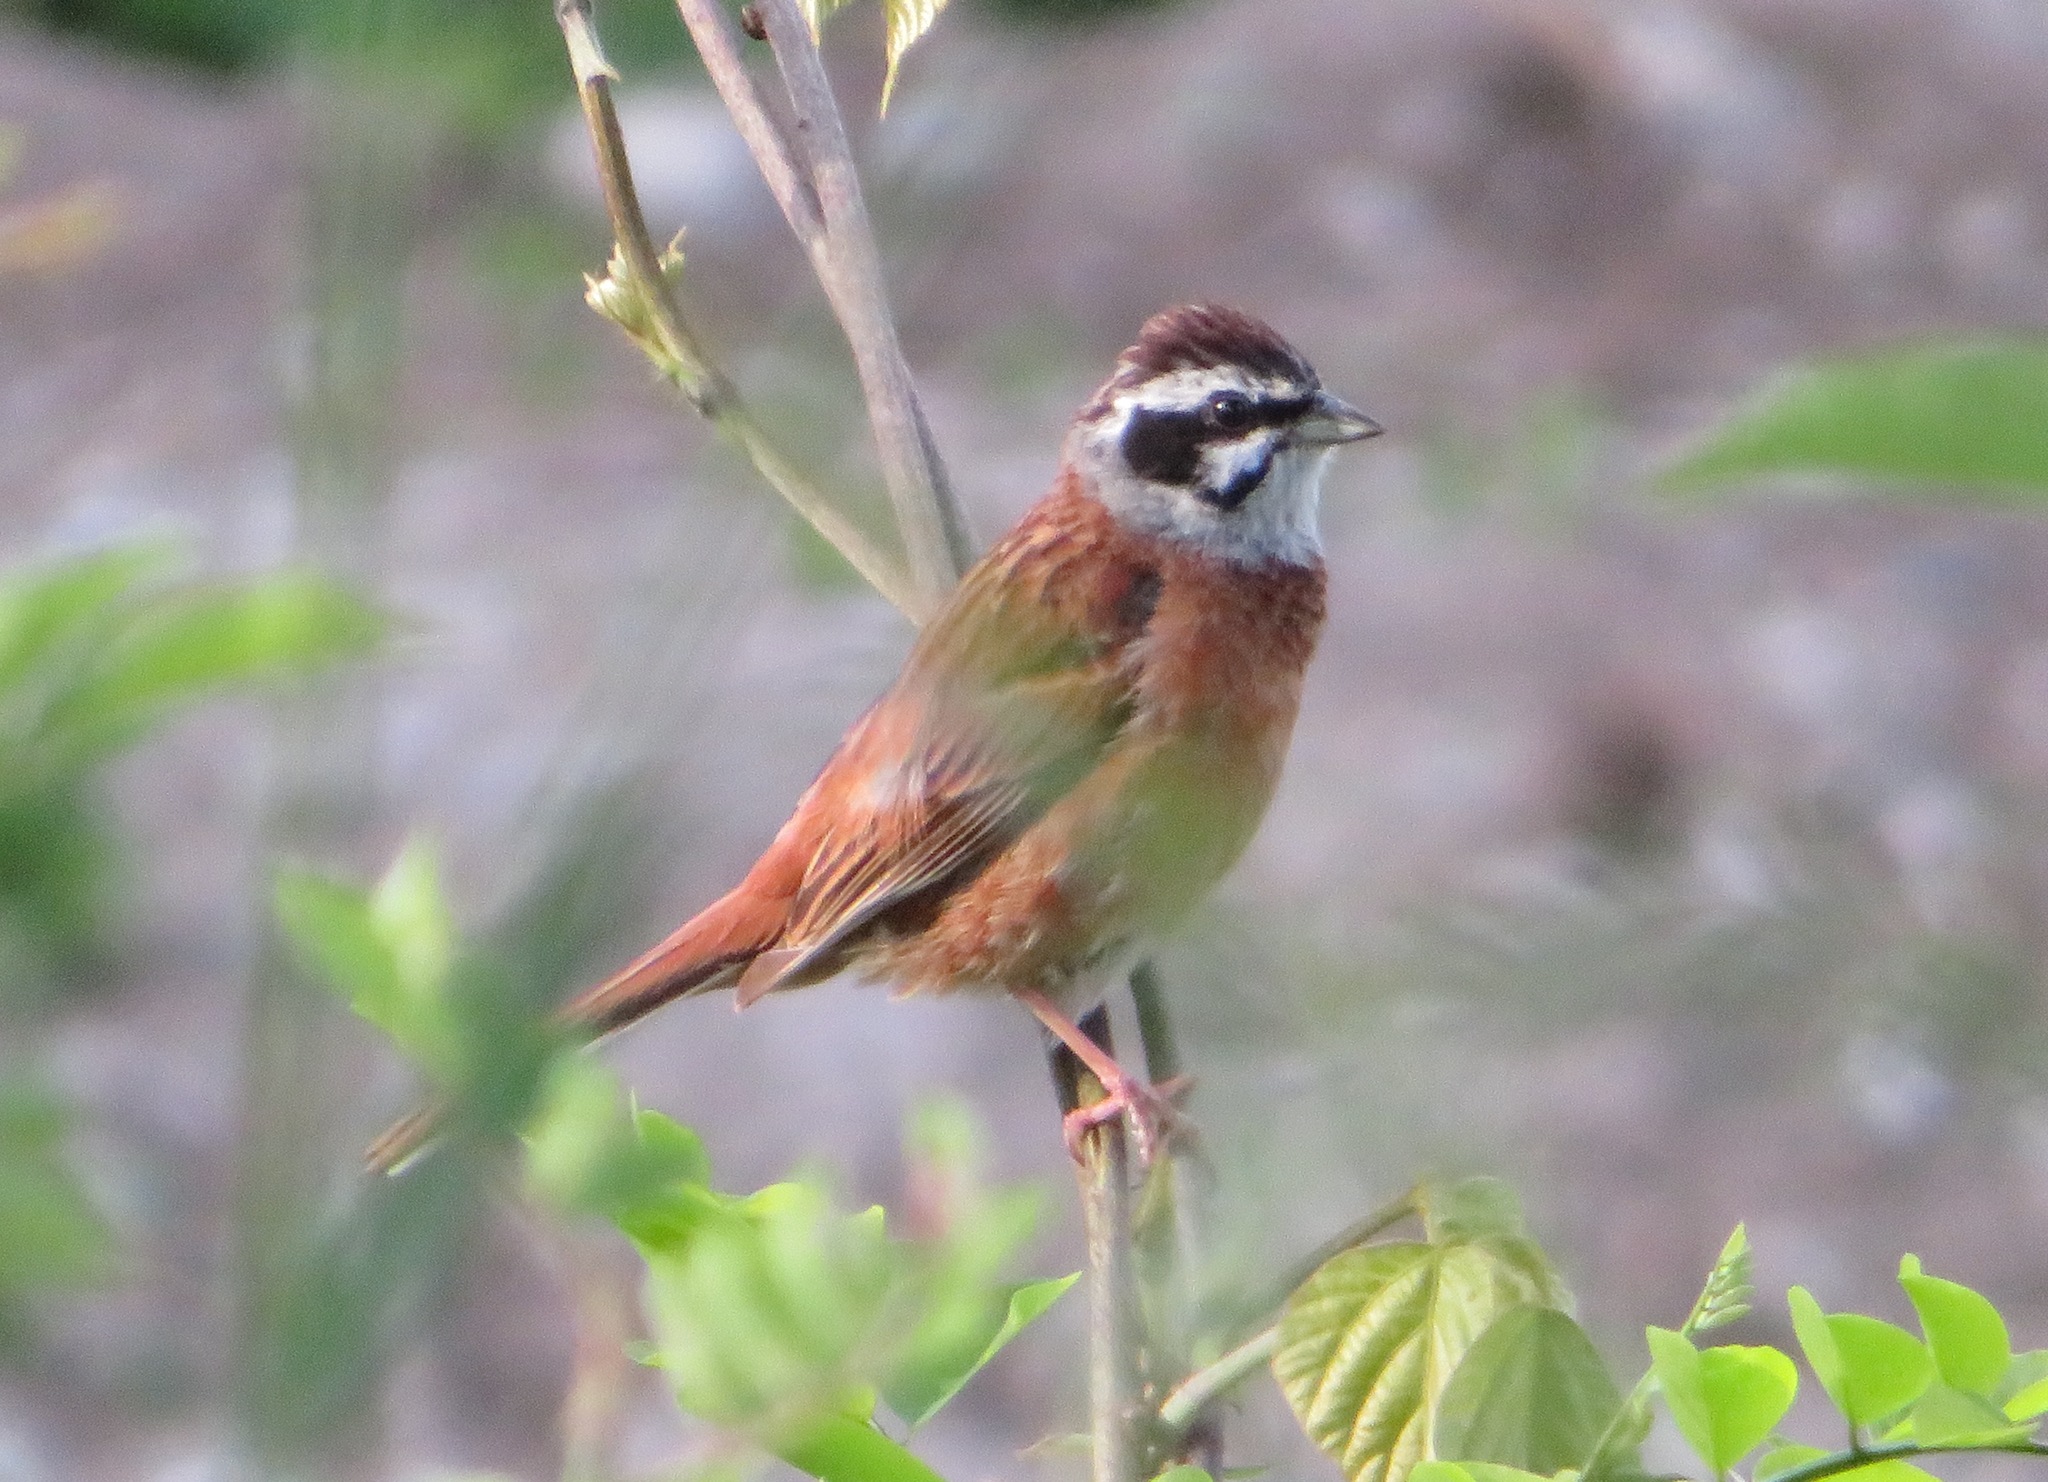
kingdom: Animalia
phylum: Chordata
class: Aves
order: Passeriformes
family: Emberizidae
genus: Emberiza
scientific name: Emberiza cioides
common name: Meadow bunting
